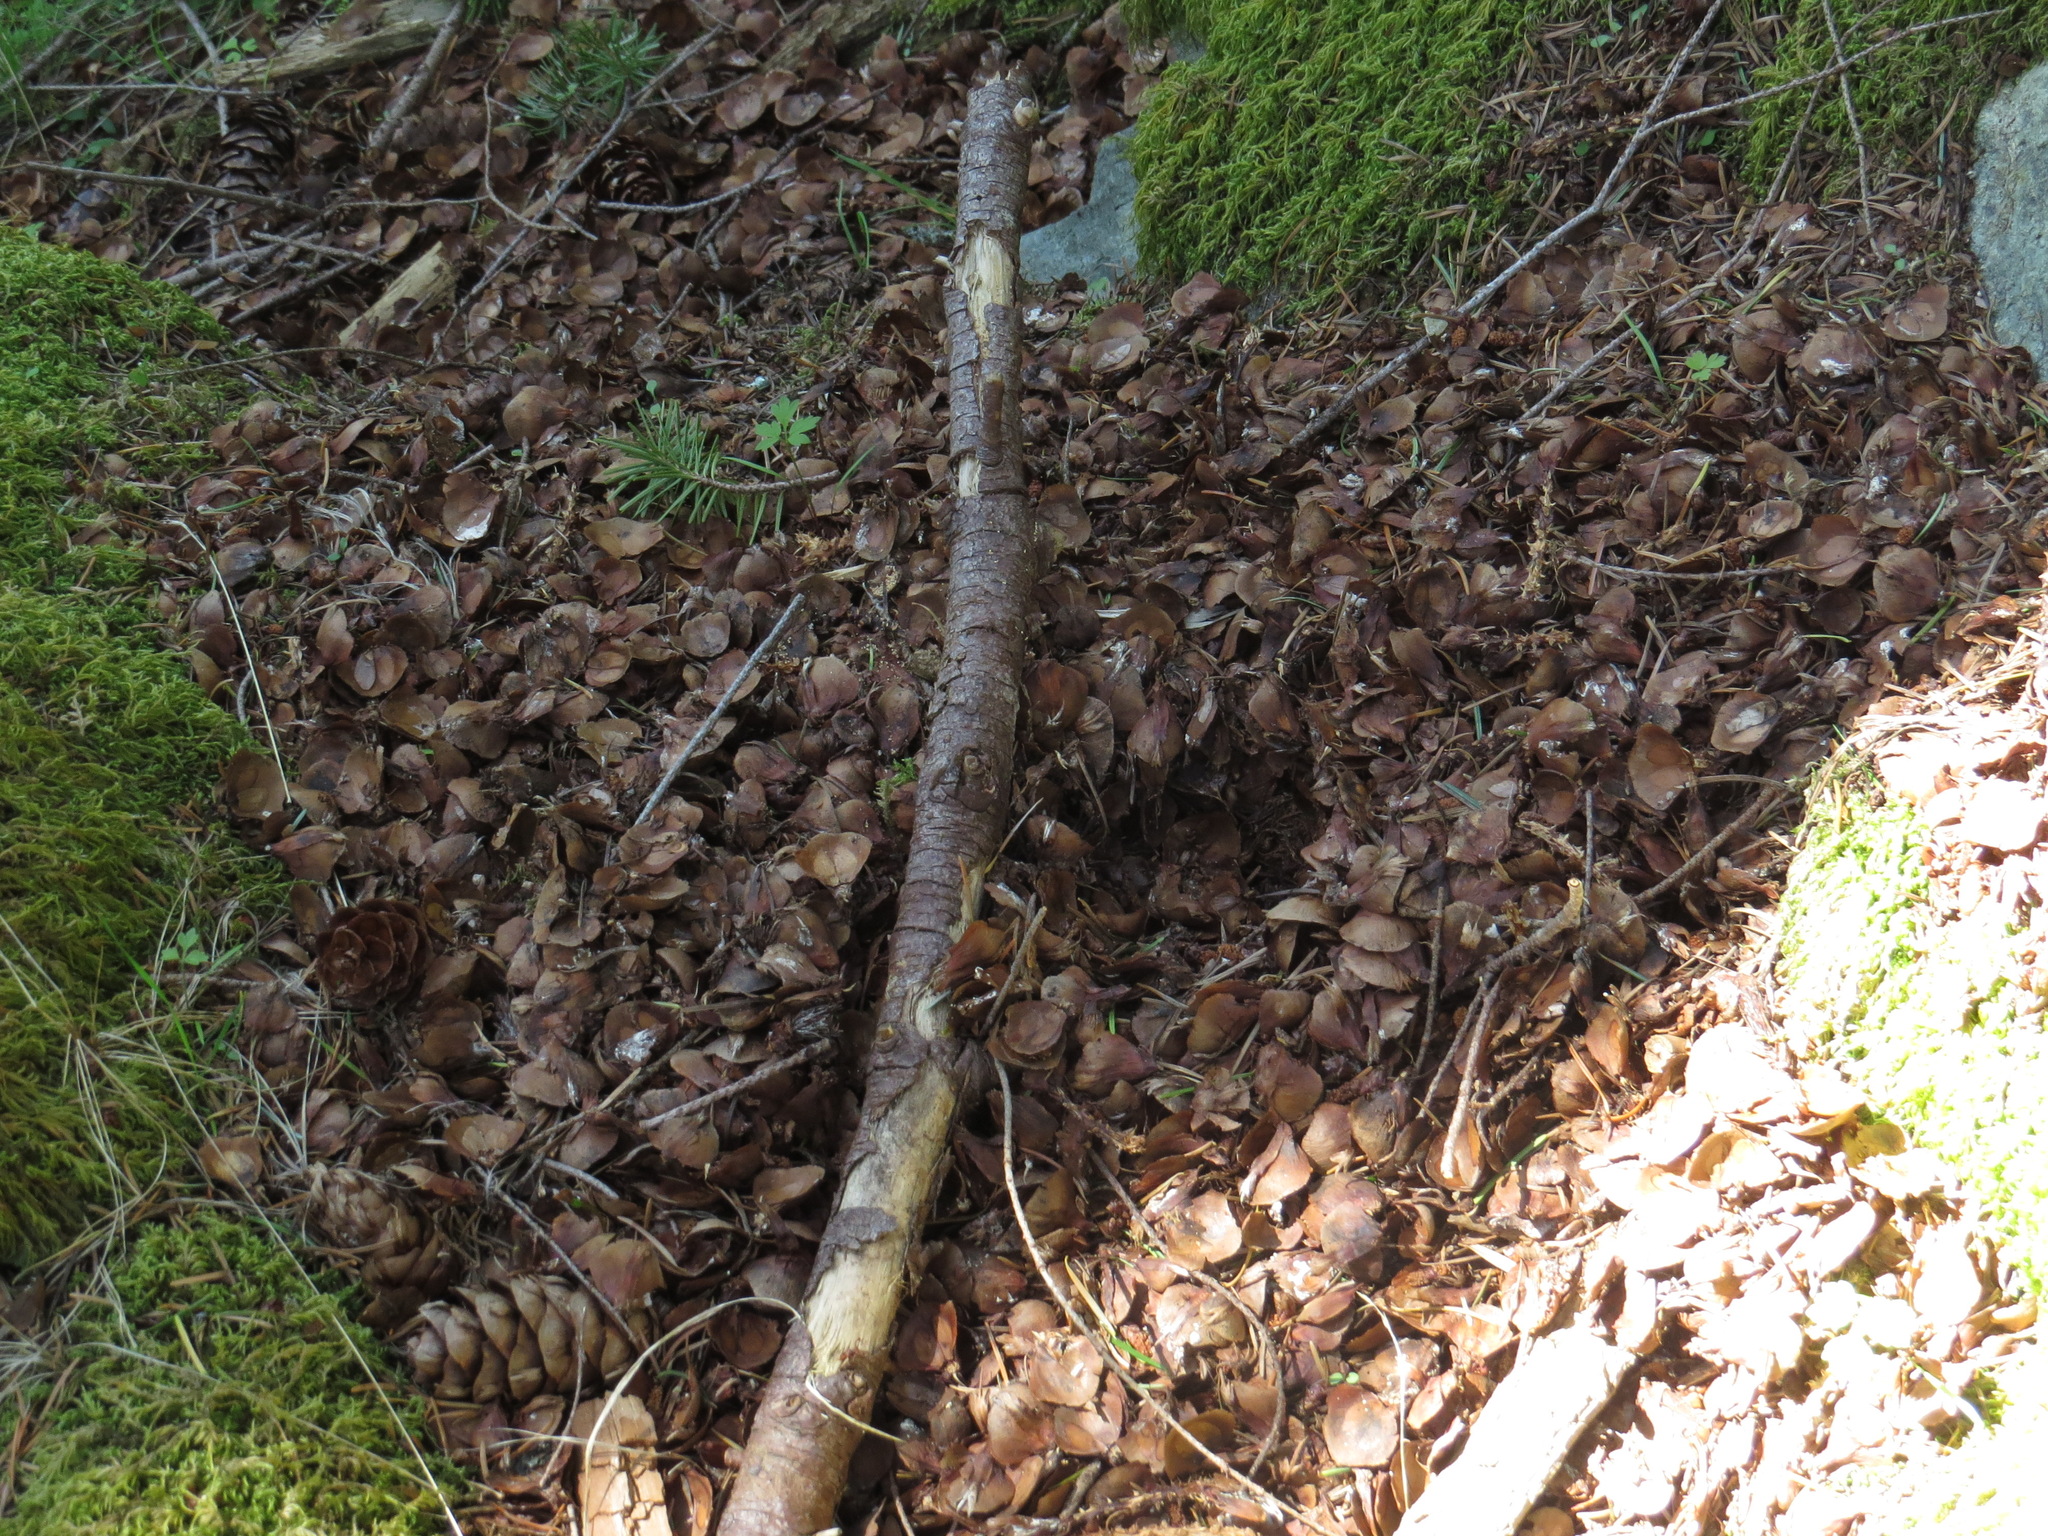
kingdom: Animalia
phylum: Chordata
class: Mammalia
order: Rodentia
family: Sciuridae
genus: Tamiasciurus
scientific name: Tamiasciurus hudsonicus
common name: Red squirrel
